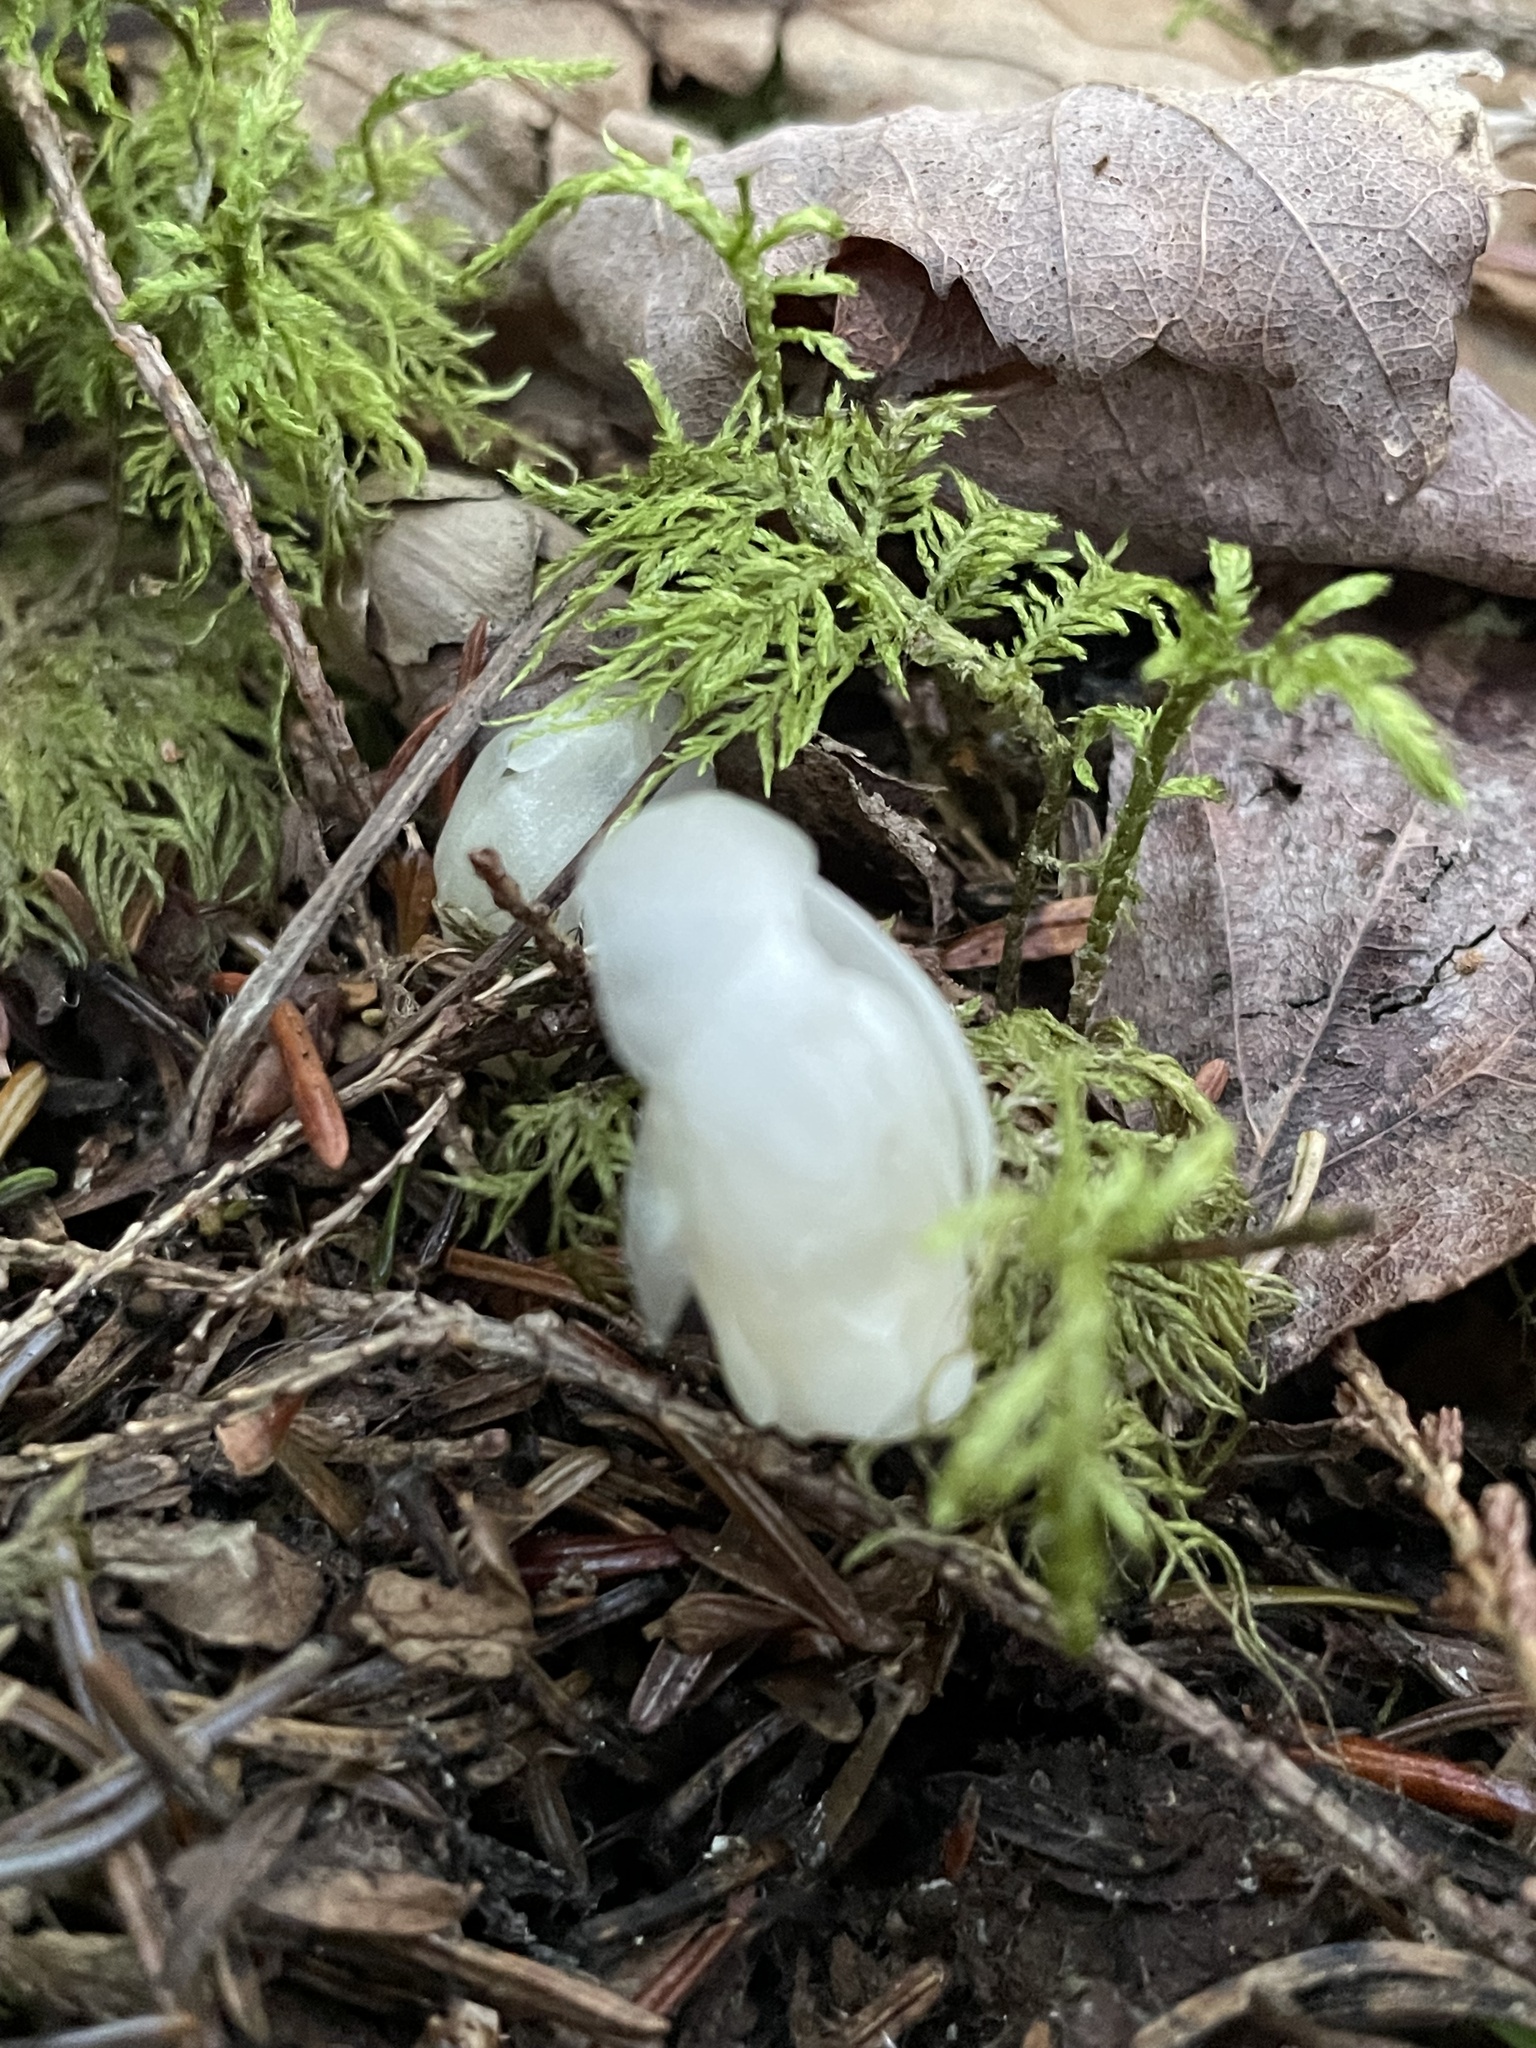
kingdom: Plantae
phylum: Tracheophyta
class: Magnoliopsida
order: Ericales
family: Ericaceae
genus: Monotropa
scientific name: Monotropa uniflora
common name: Convulsion root
